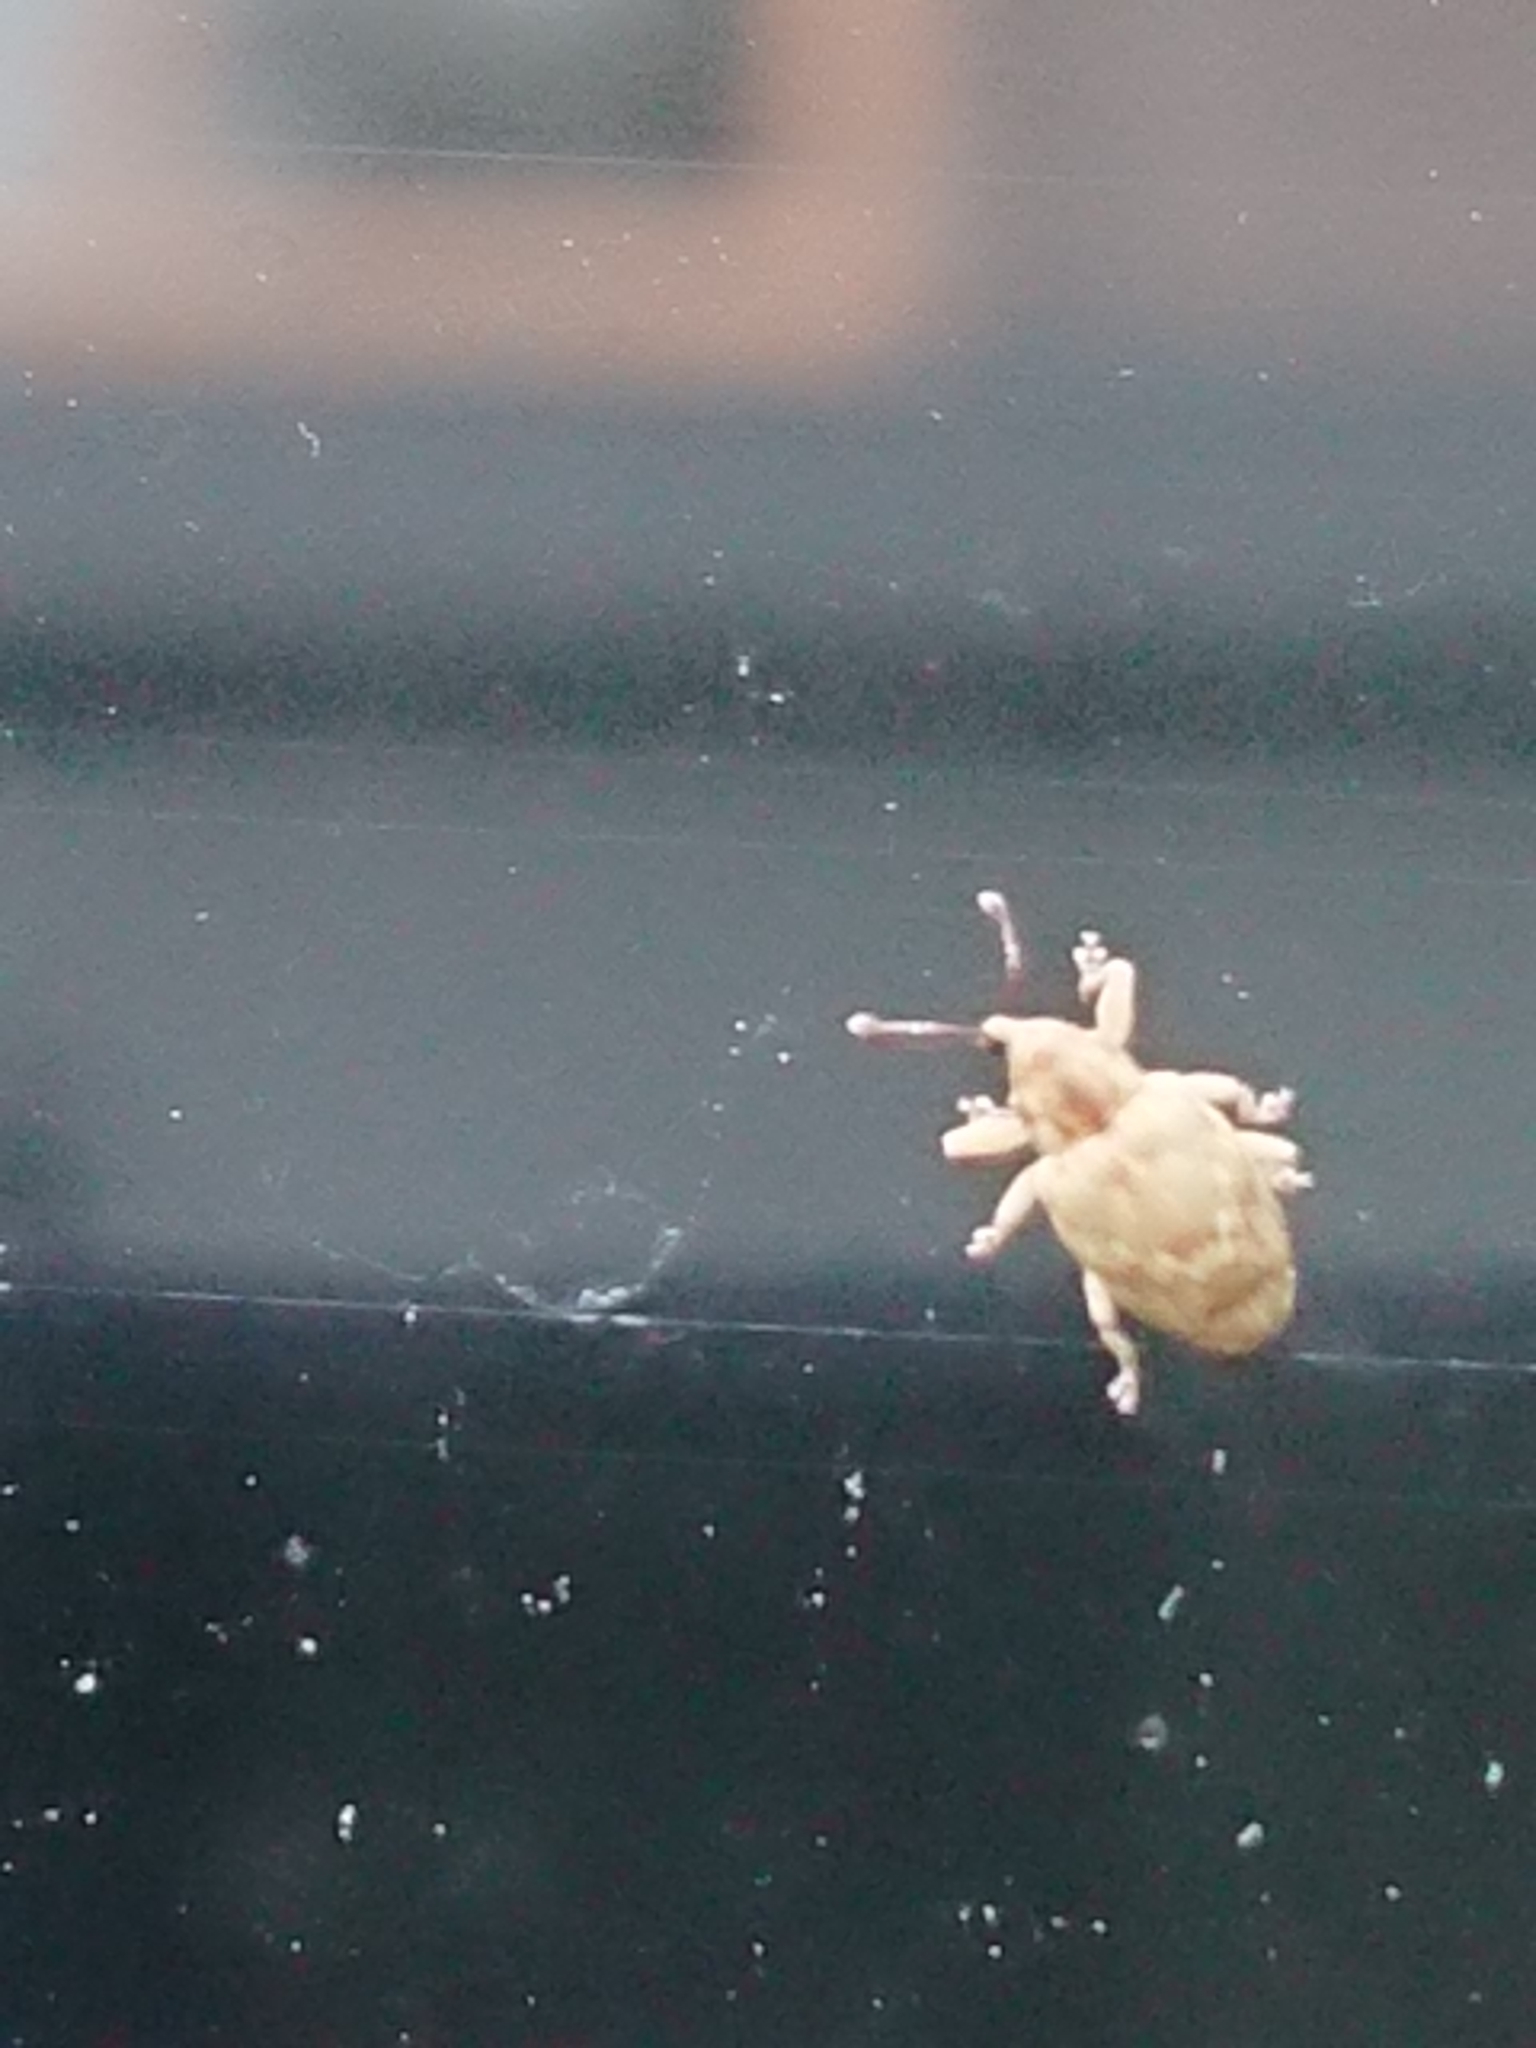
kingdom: Animalia
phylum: Arthropoda
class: Insecta
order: Coleoptera
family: Curculionidae
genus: Aneuma
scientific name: Aneuma compta
